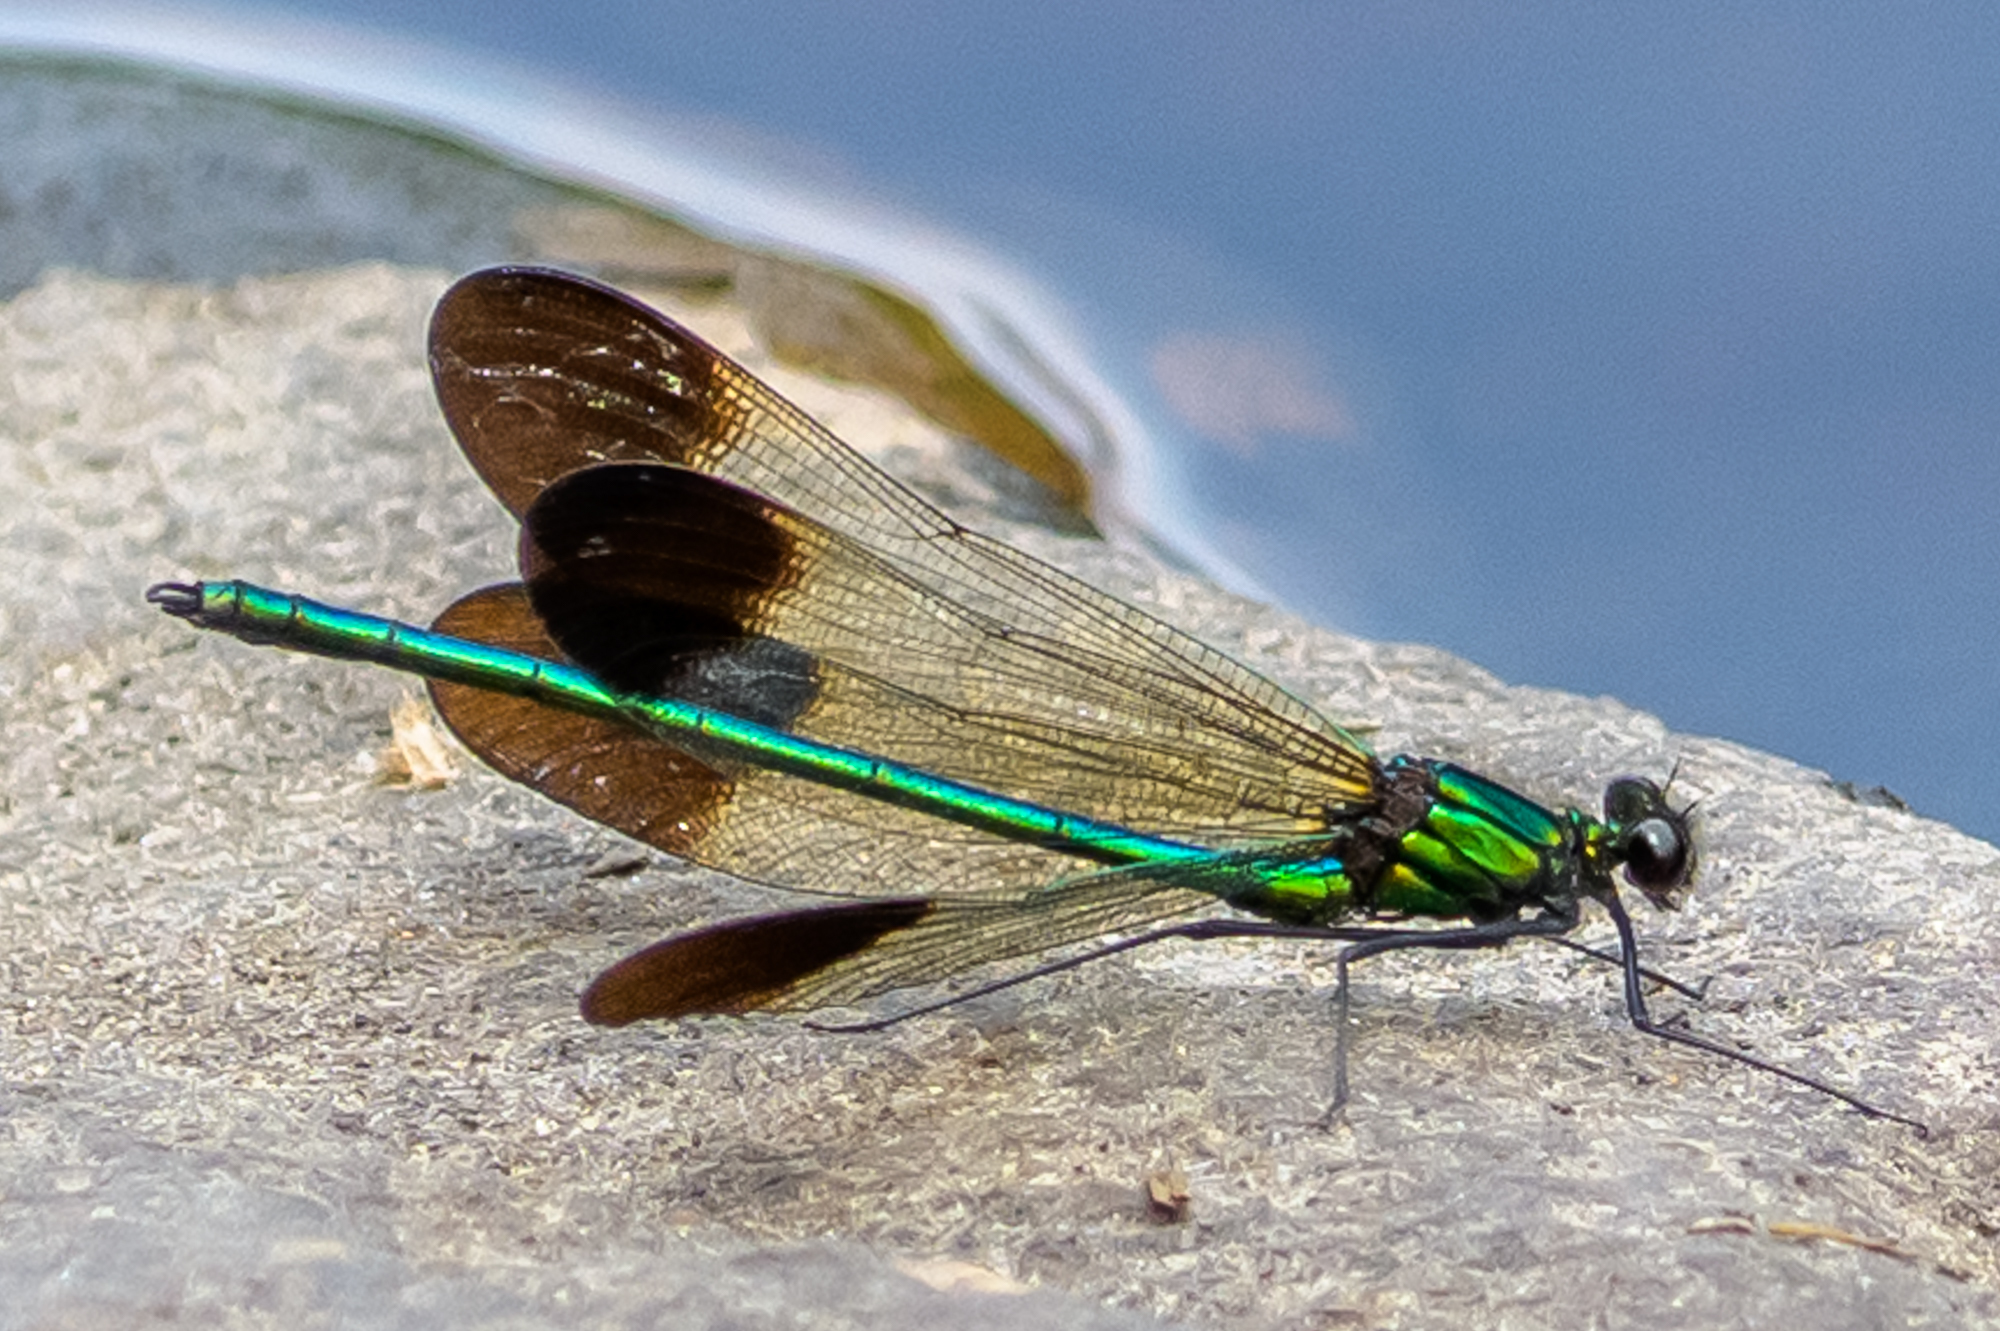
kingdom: Animalia
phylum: Arthropoda
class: Insecta
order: Odonata
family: Calopterygidae
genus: Calopteryx
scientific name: Calopteryx aequabilis
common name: River jewelwing
